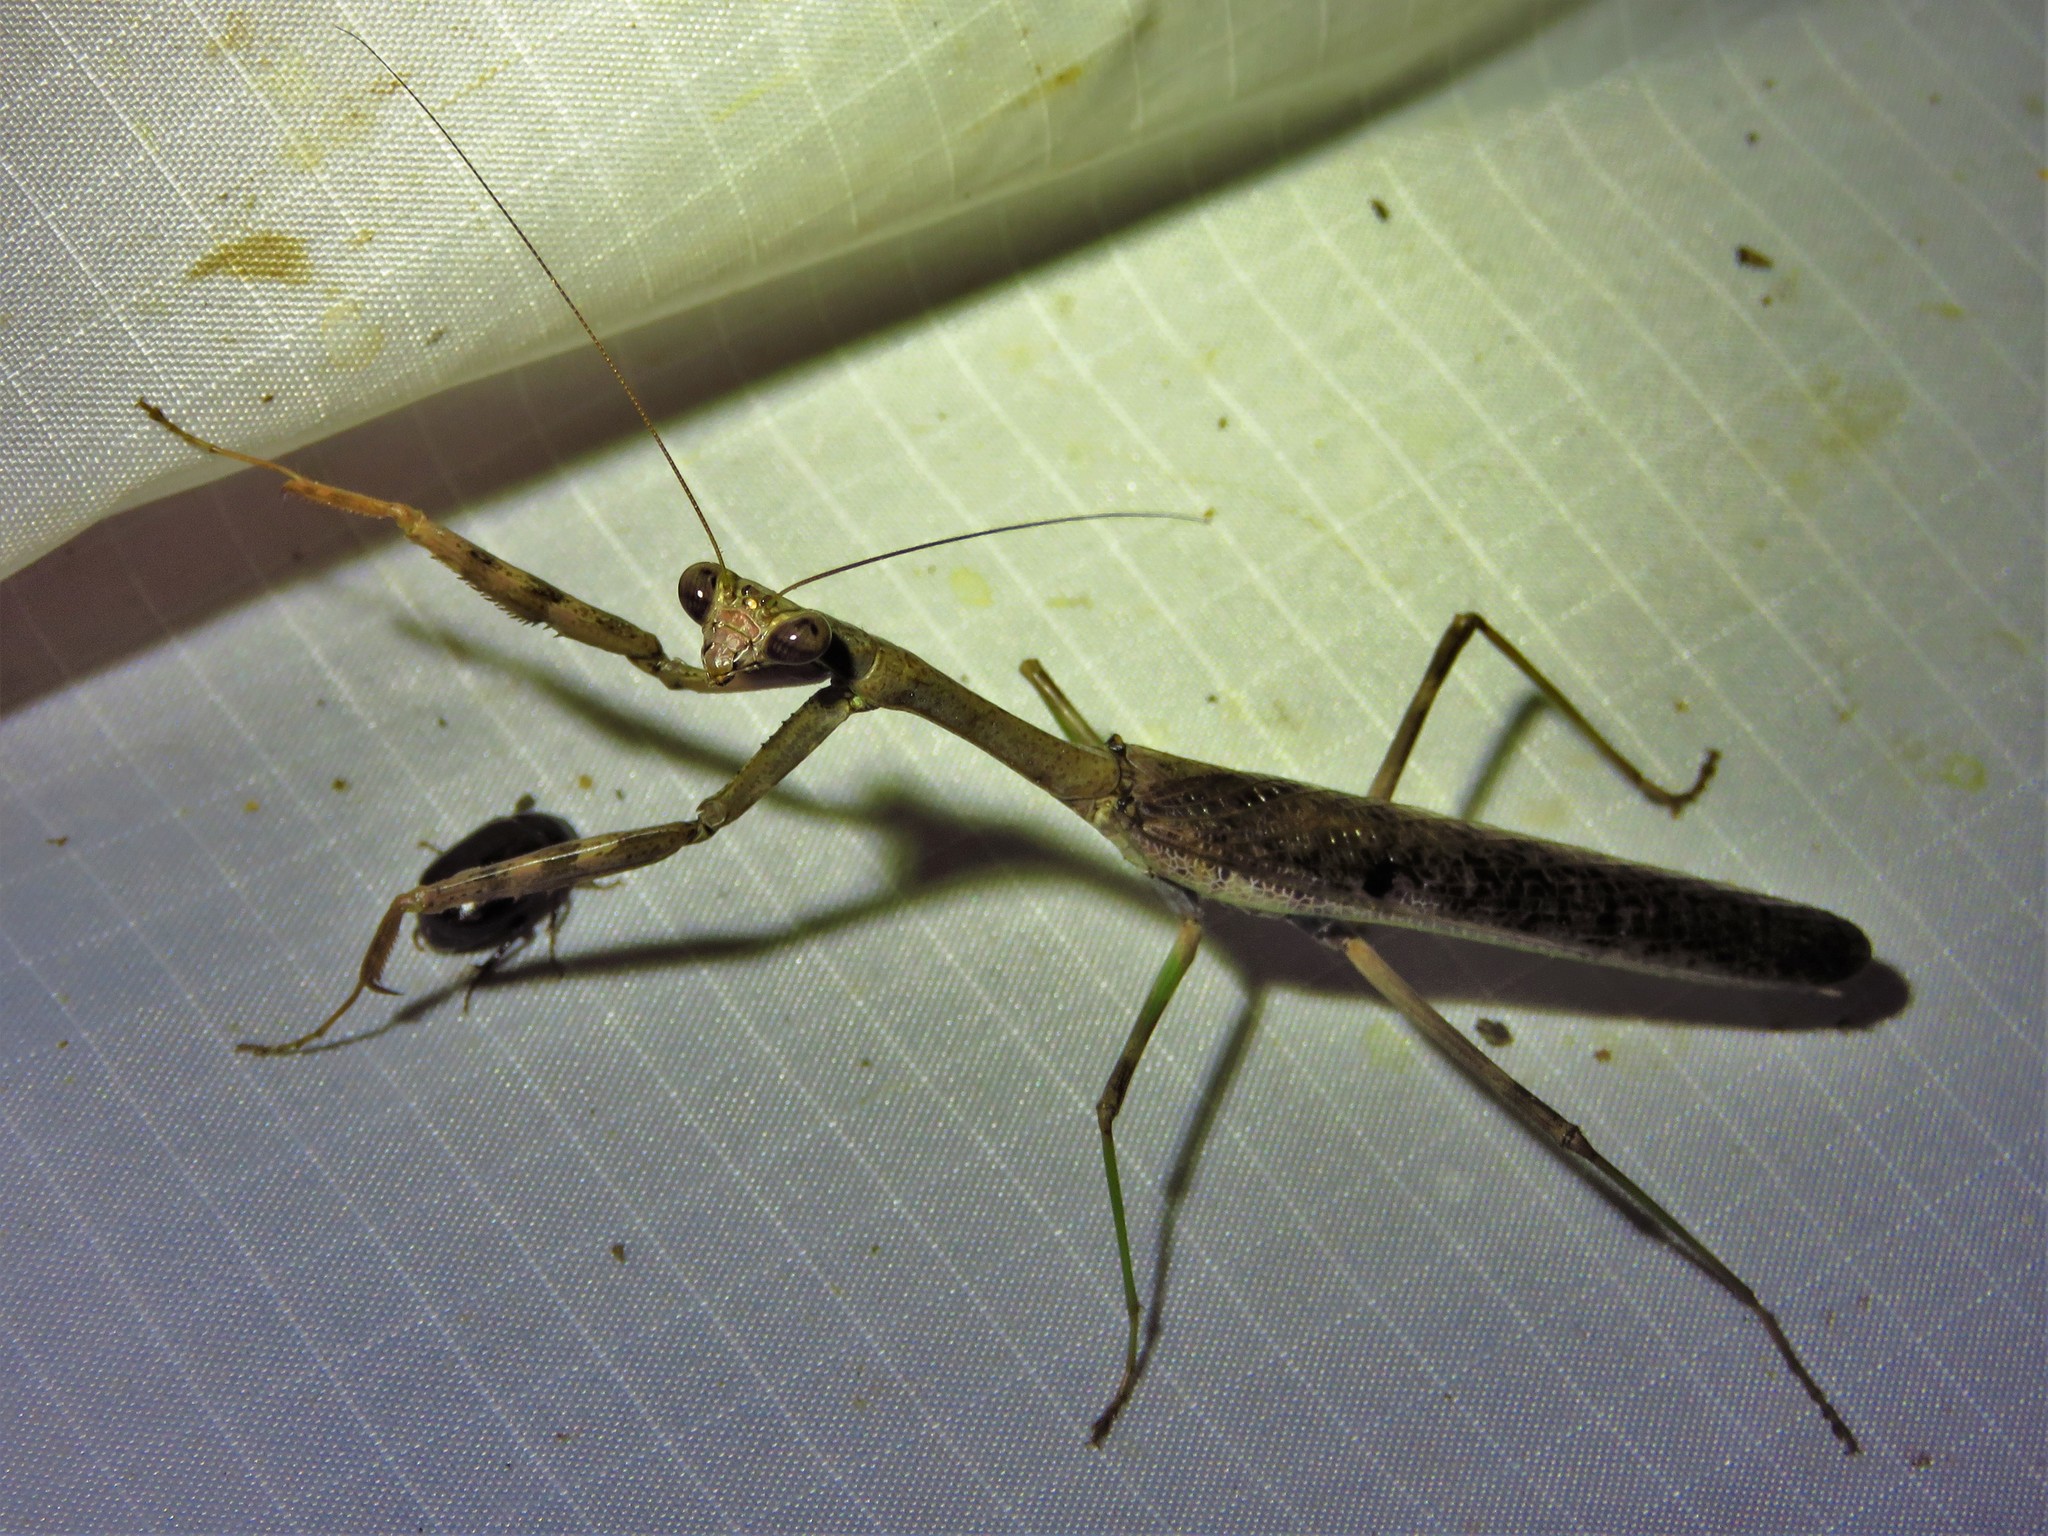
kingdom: Animalia
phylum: Arthropoda
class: Insecta
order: Mantodea
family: Mantidae
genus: Stagmomantis
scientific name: Stagmomantis carolina
